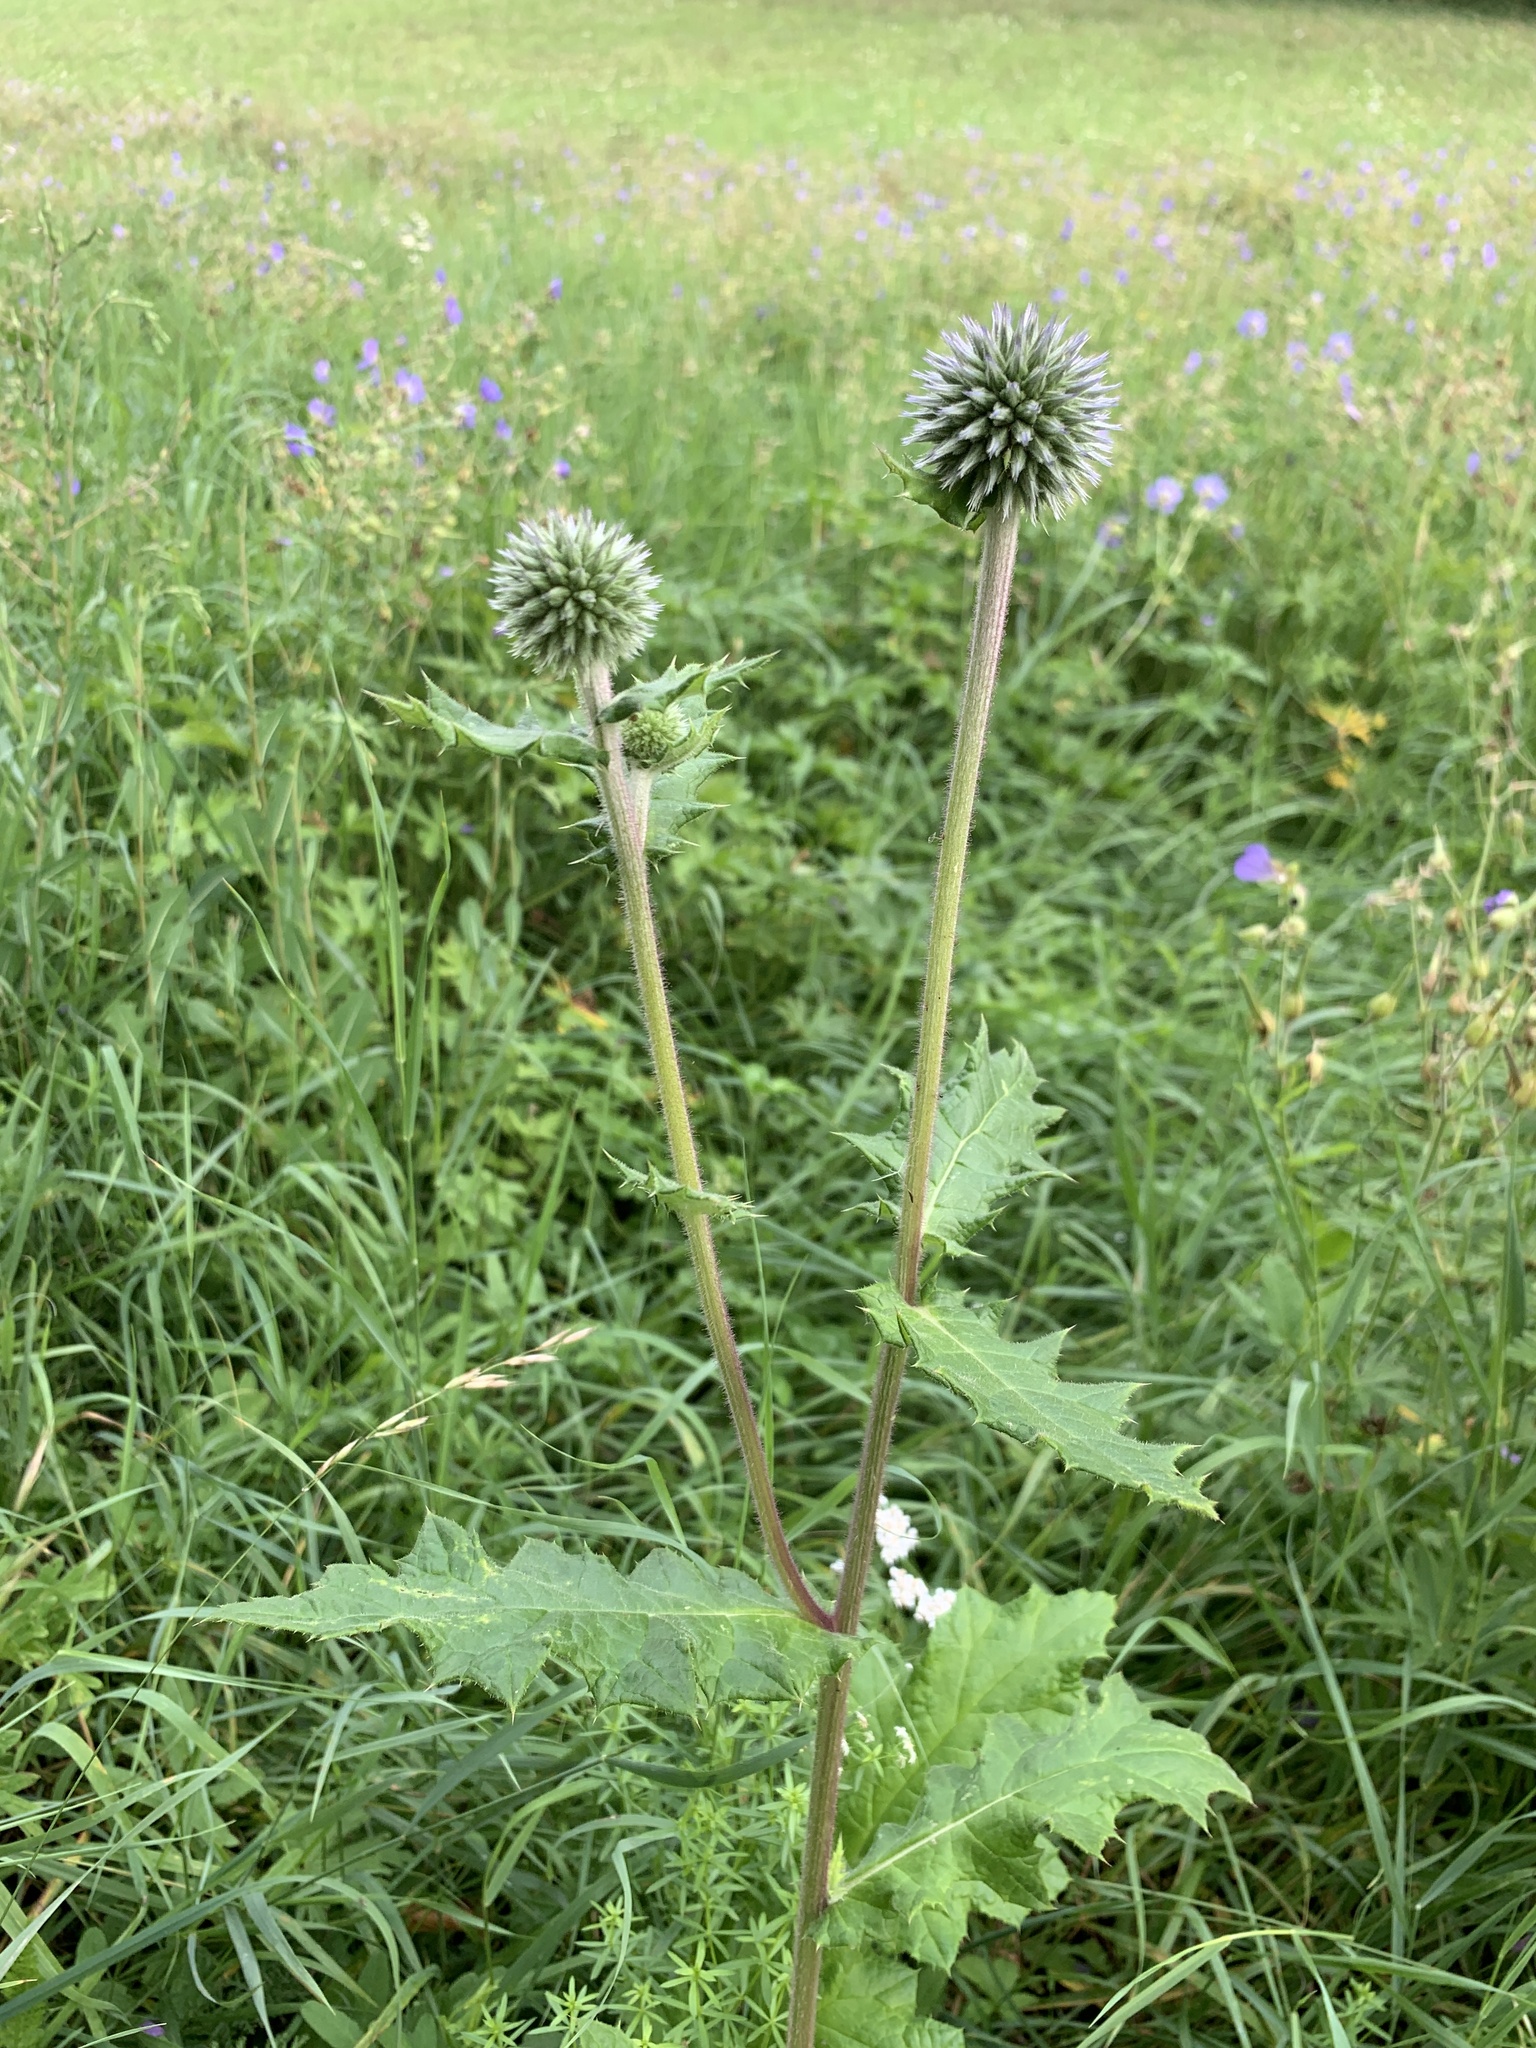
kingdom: Plantae
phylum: Tracheophyta
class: Magnoliopsida
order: Asterales
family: Asteraceae
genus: Echinops
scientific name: Echinops sphaerocephalus
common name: Glandular globe-thistle
